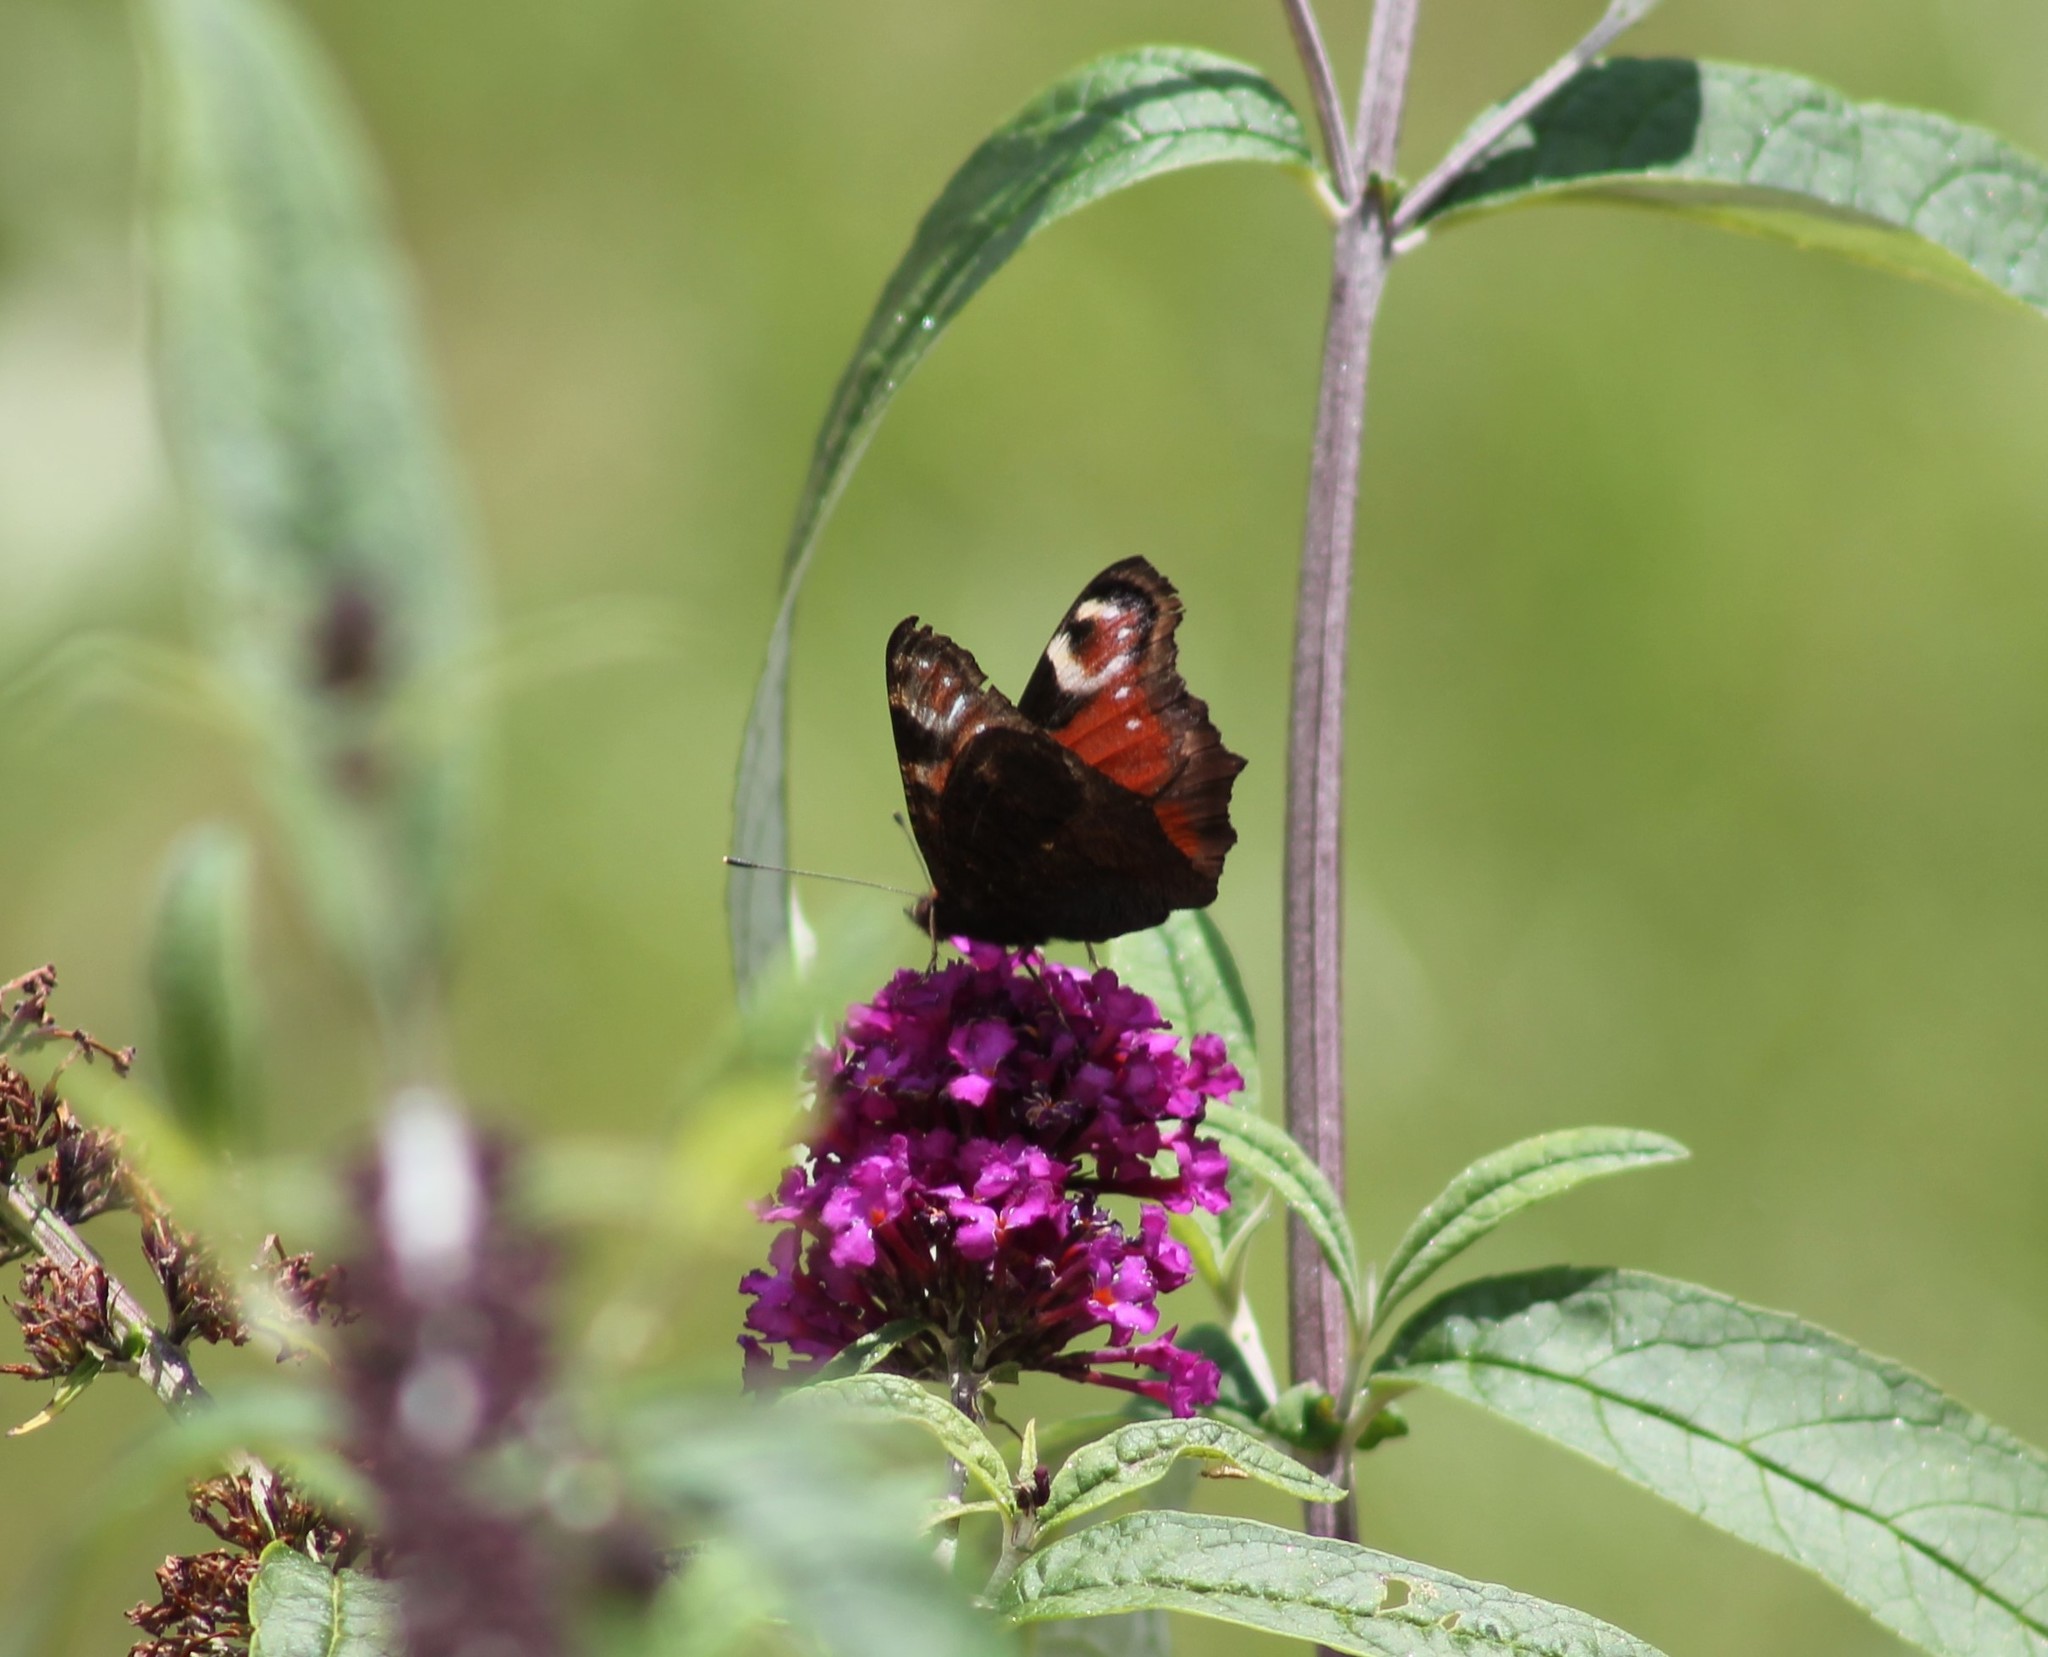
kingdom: Animalia
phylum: Arthropoda
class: Insecta
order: Lepidoptera
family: Nymphalidae
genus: Aglais
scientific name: Aglais io
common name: Peacock
